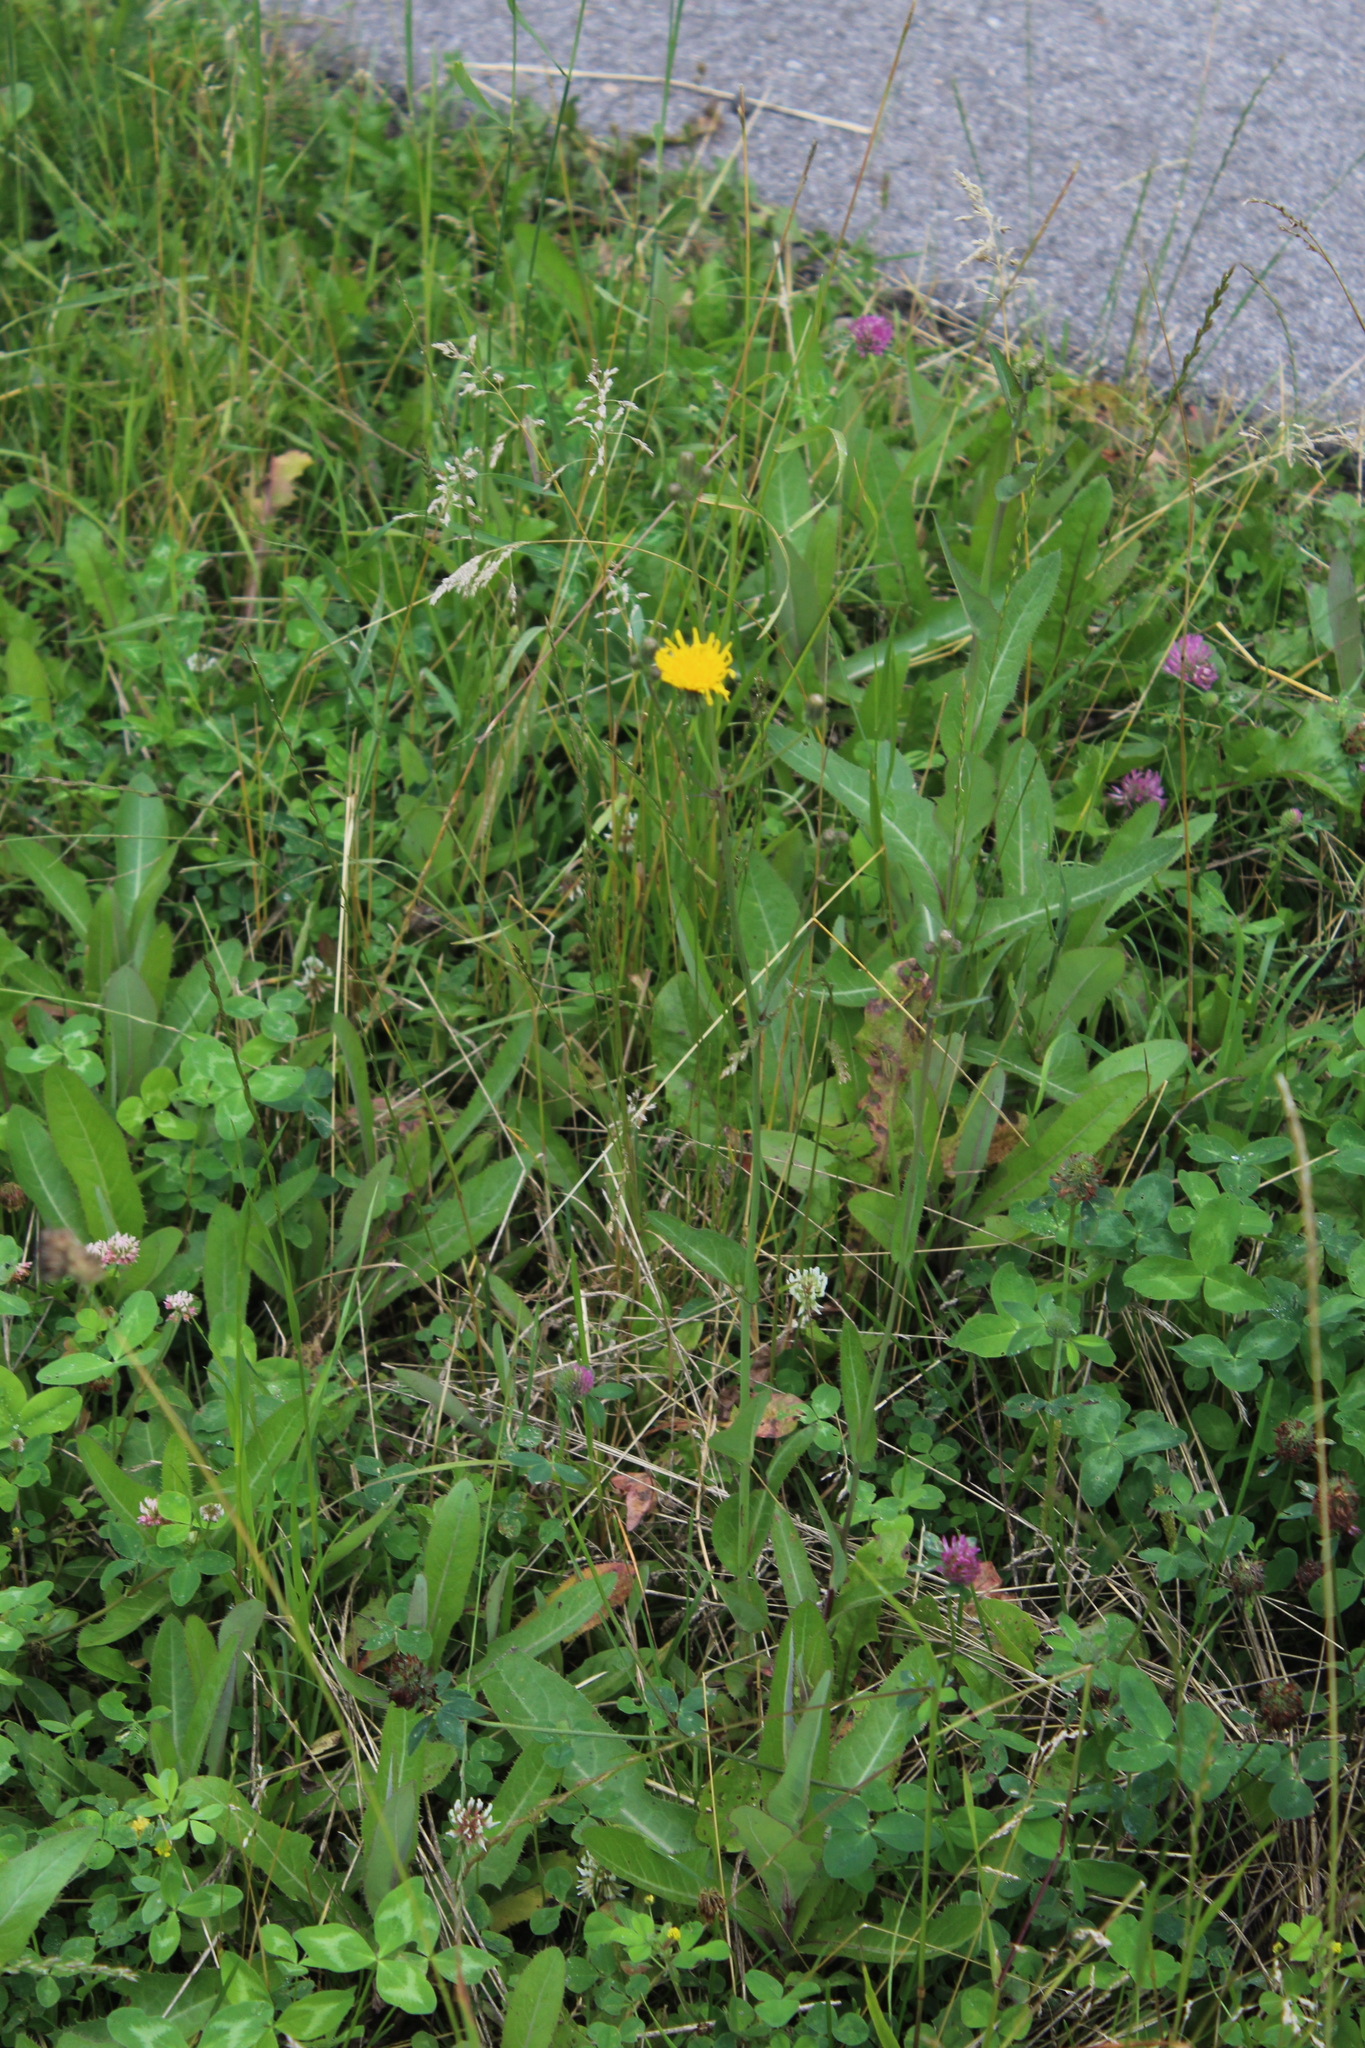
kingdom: Plantae
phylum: Tracheophyta
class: Magnoliopsida
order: Asterales
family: Asteraceae
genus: Sonchus
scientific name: Sonchus arvensis
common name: Perennial sow-thistle
